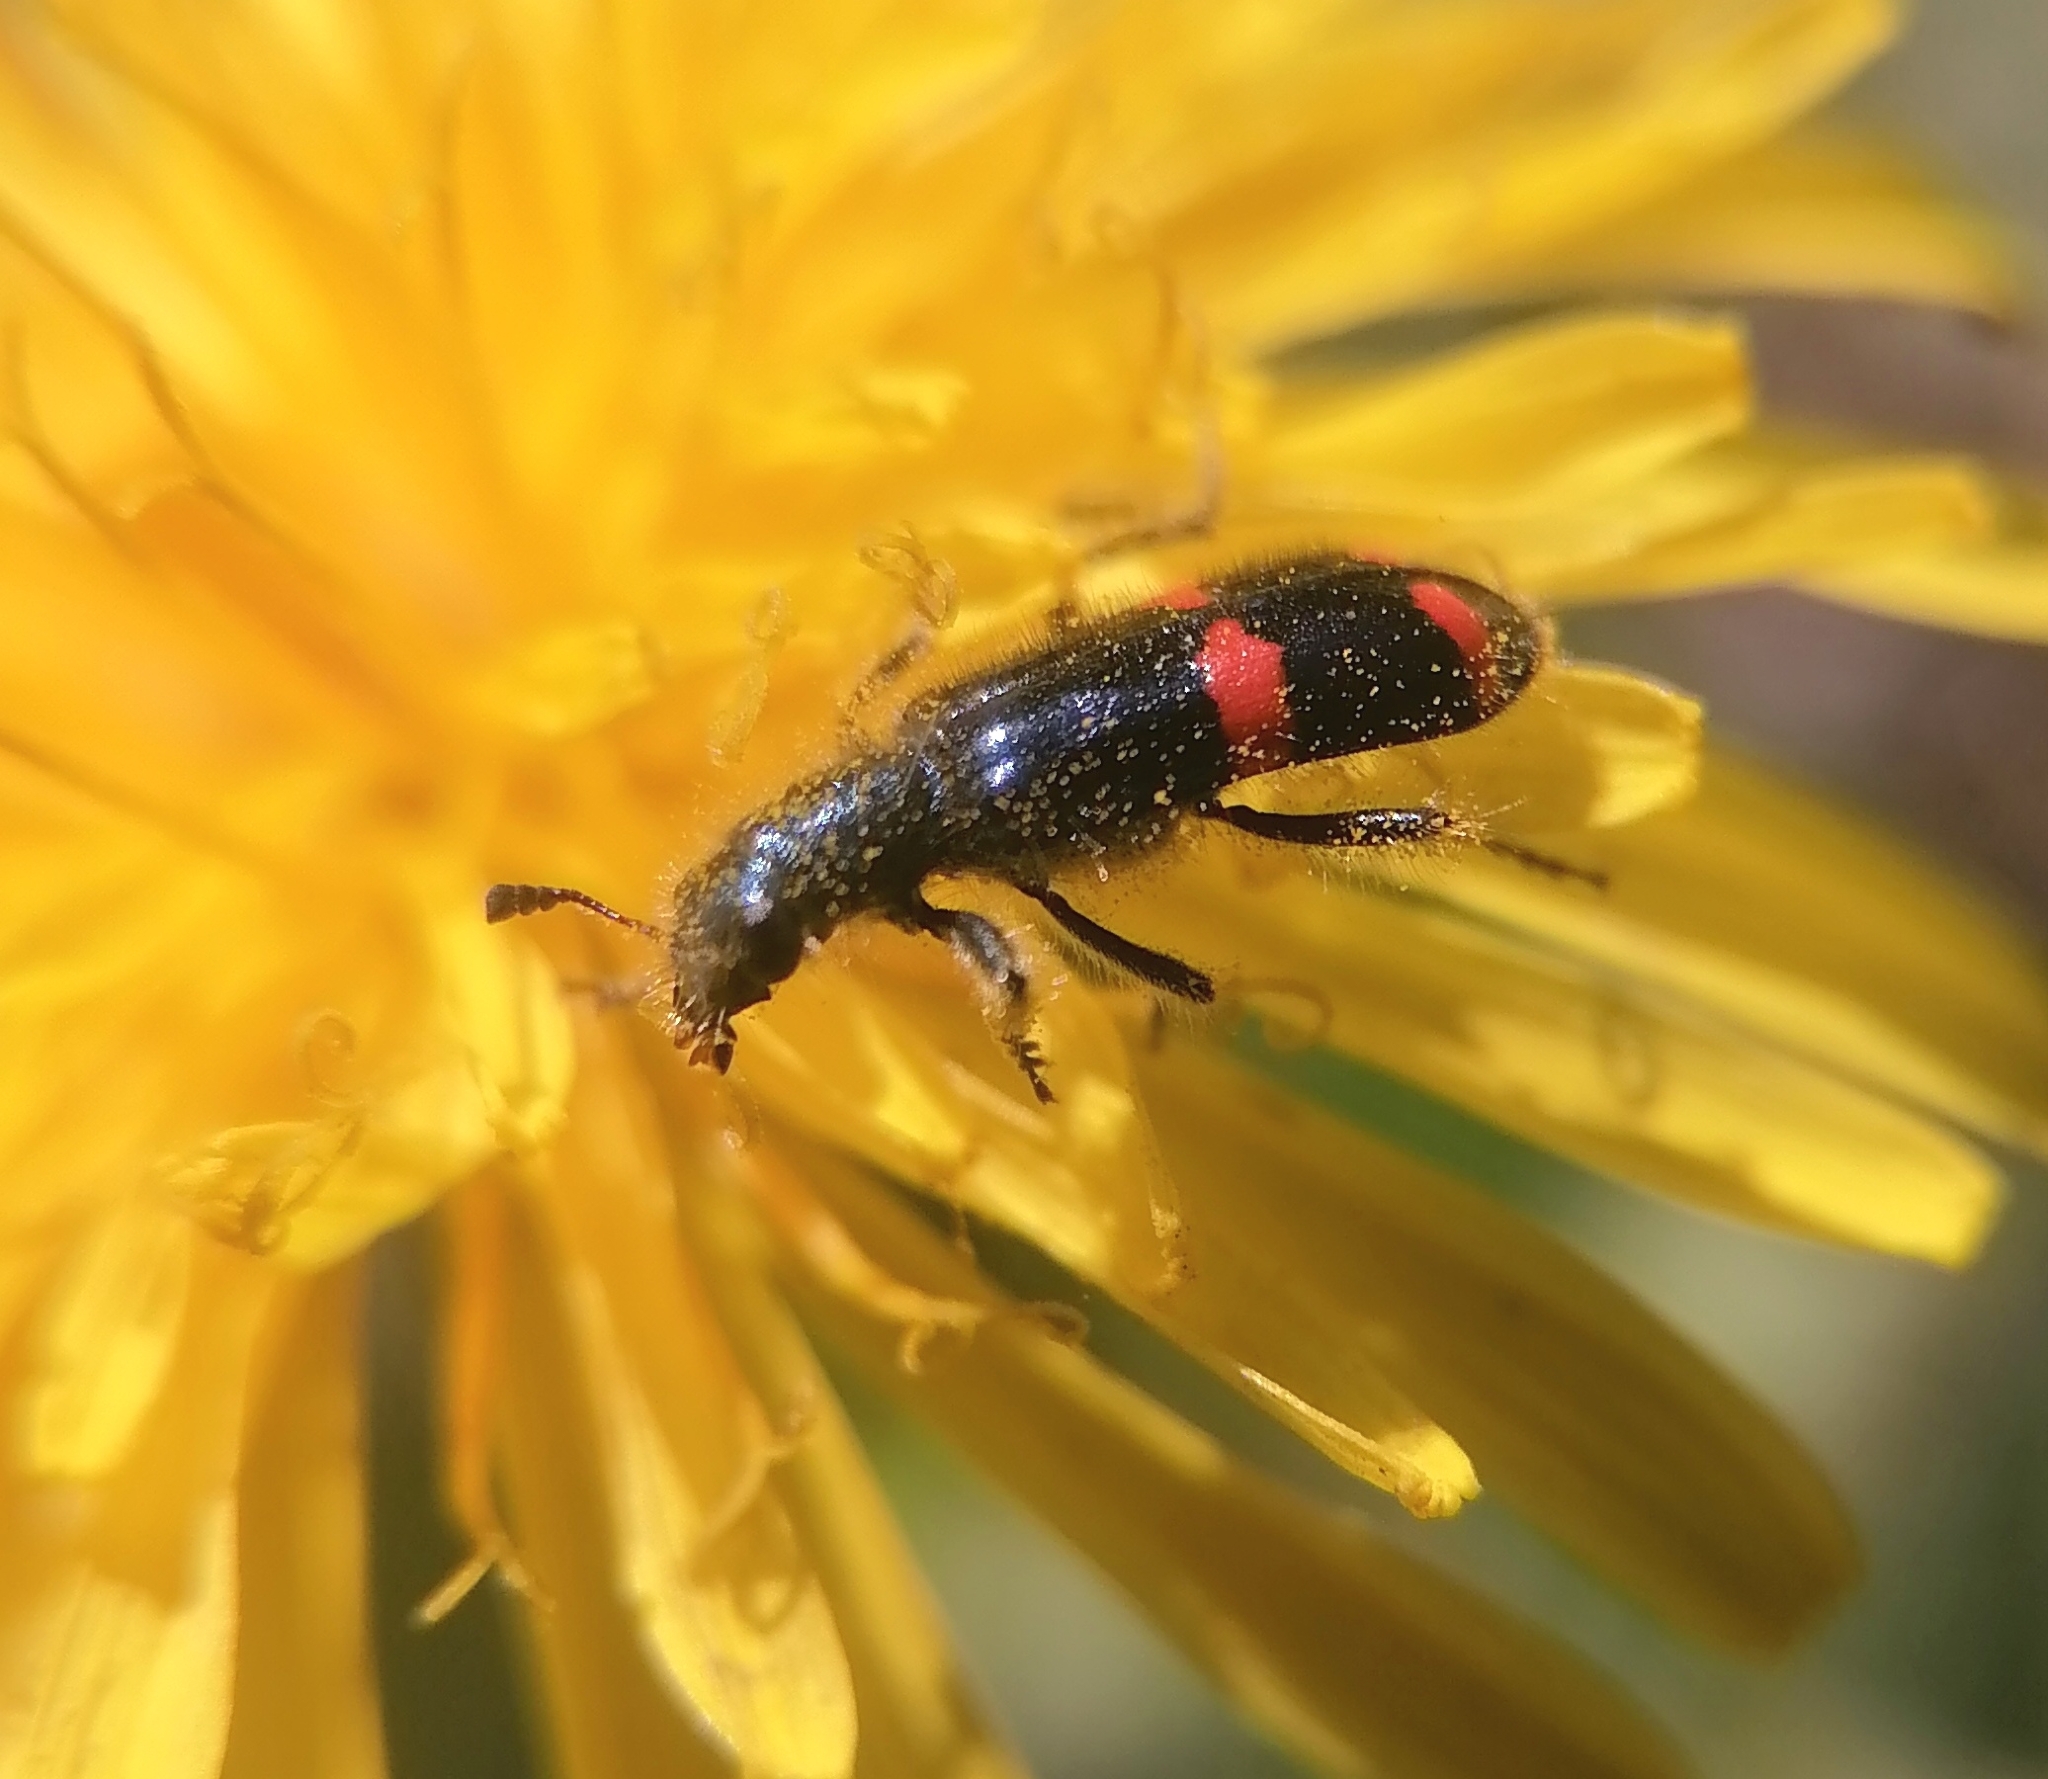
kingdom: Animalia
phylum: Arthropoda
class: Insecta
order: Coleoptera
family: Cleridae
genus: Trichodes
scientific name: Trichodes
